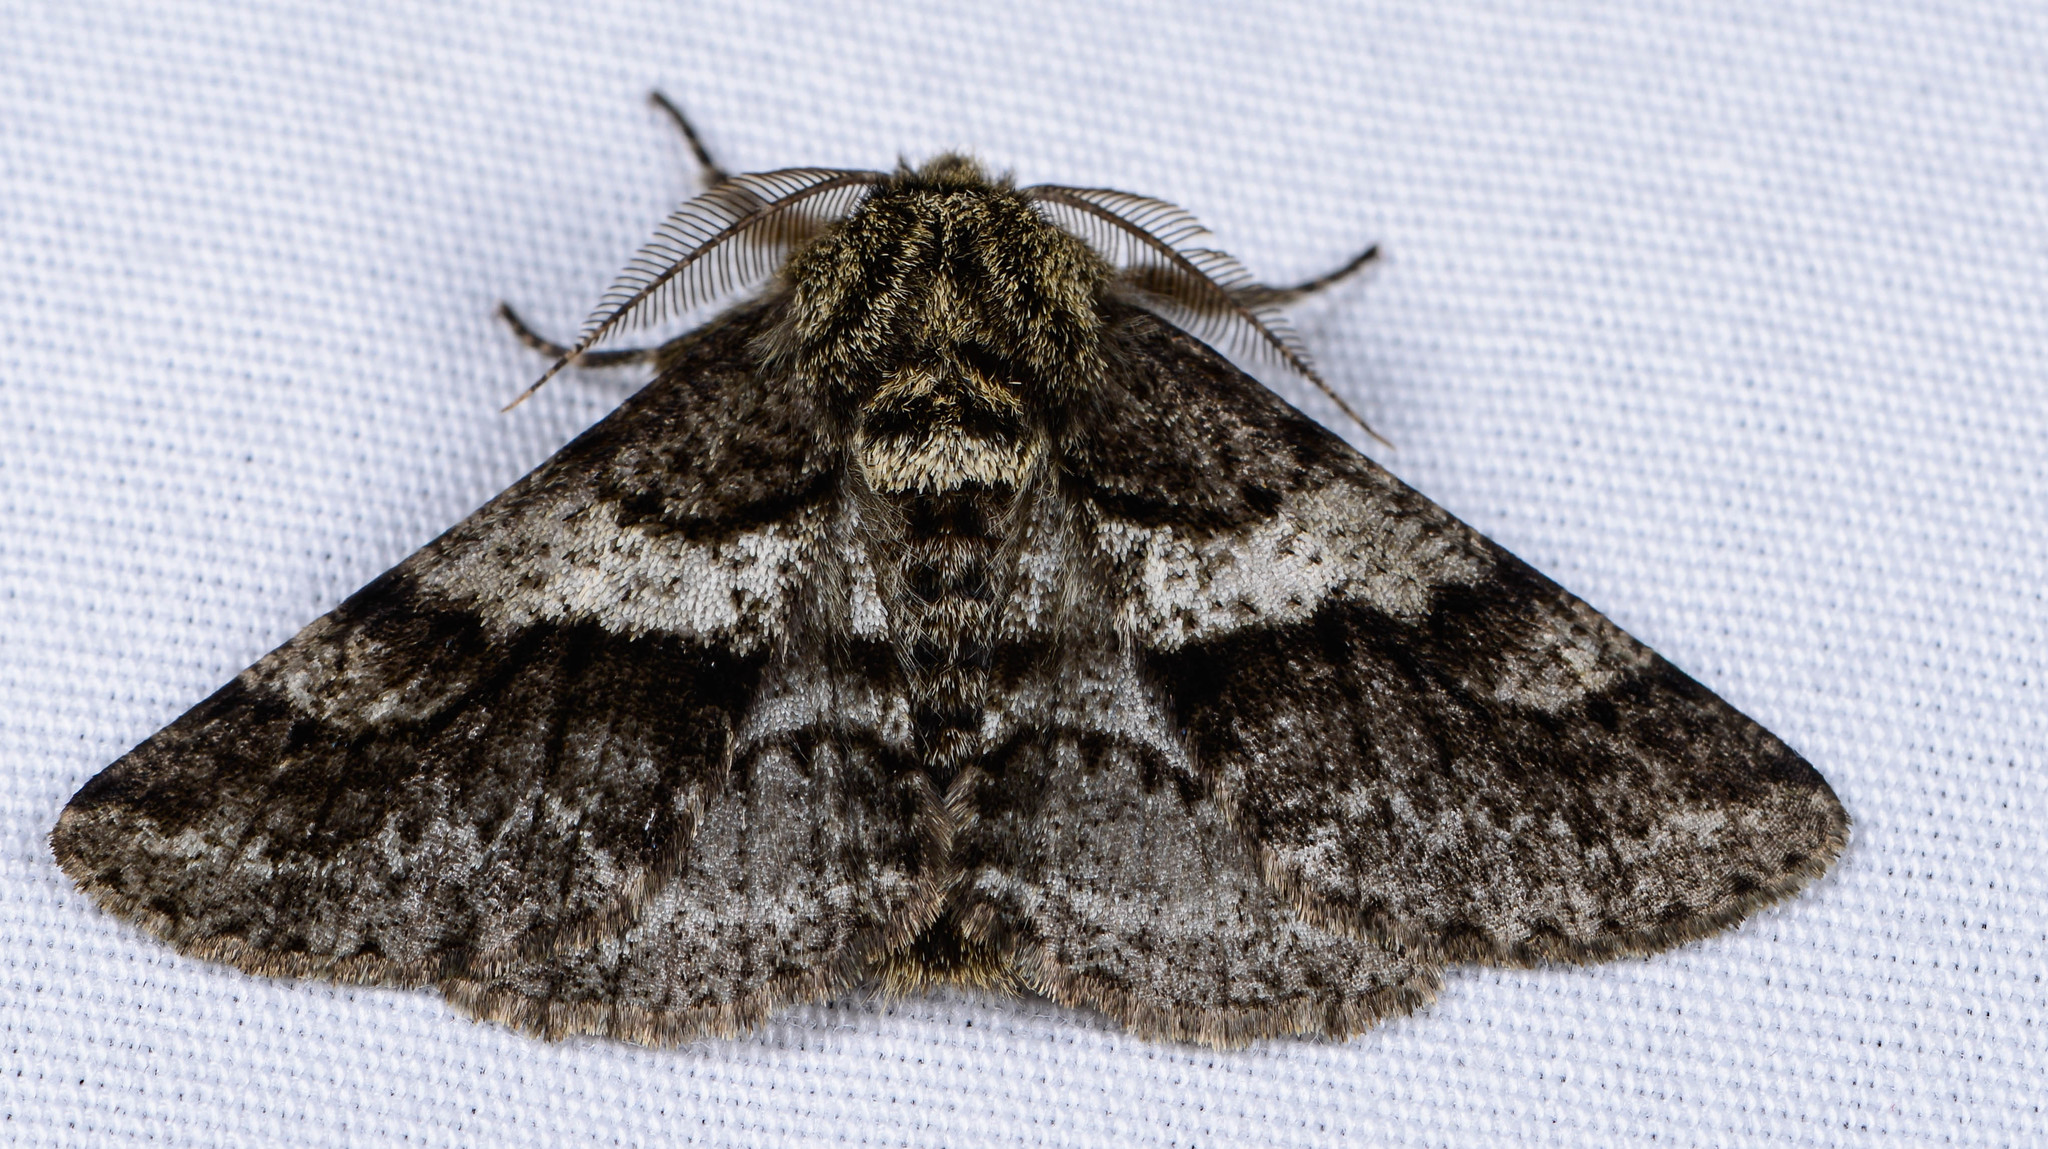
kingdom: Animalia
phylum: Arthropoda
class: Insecta
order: Lepidoptera
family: Geometridae
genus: Lycia
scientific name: Lycia ypsilon
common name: Wooly gray
